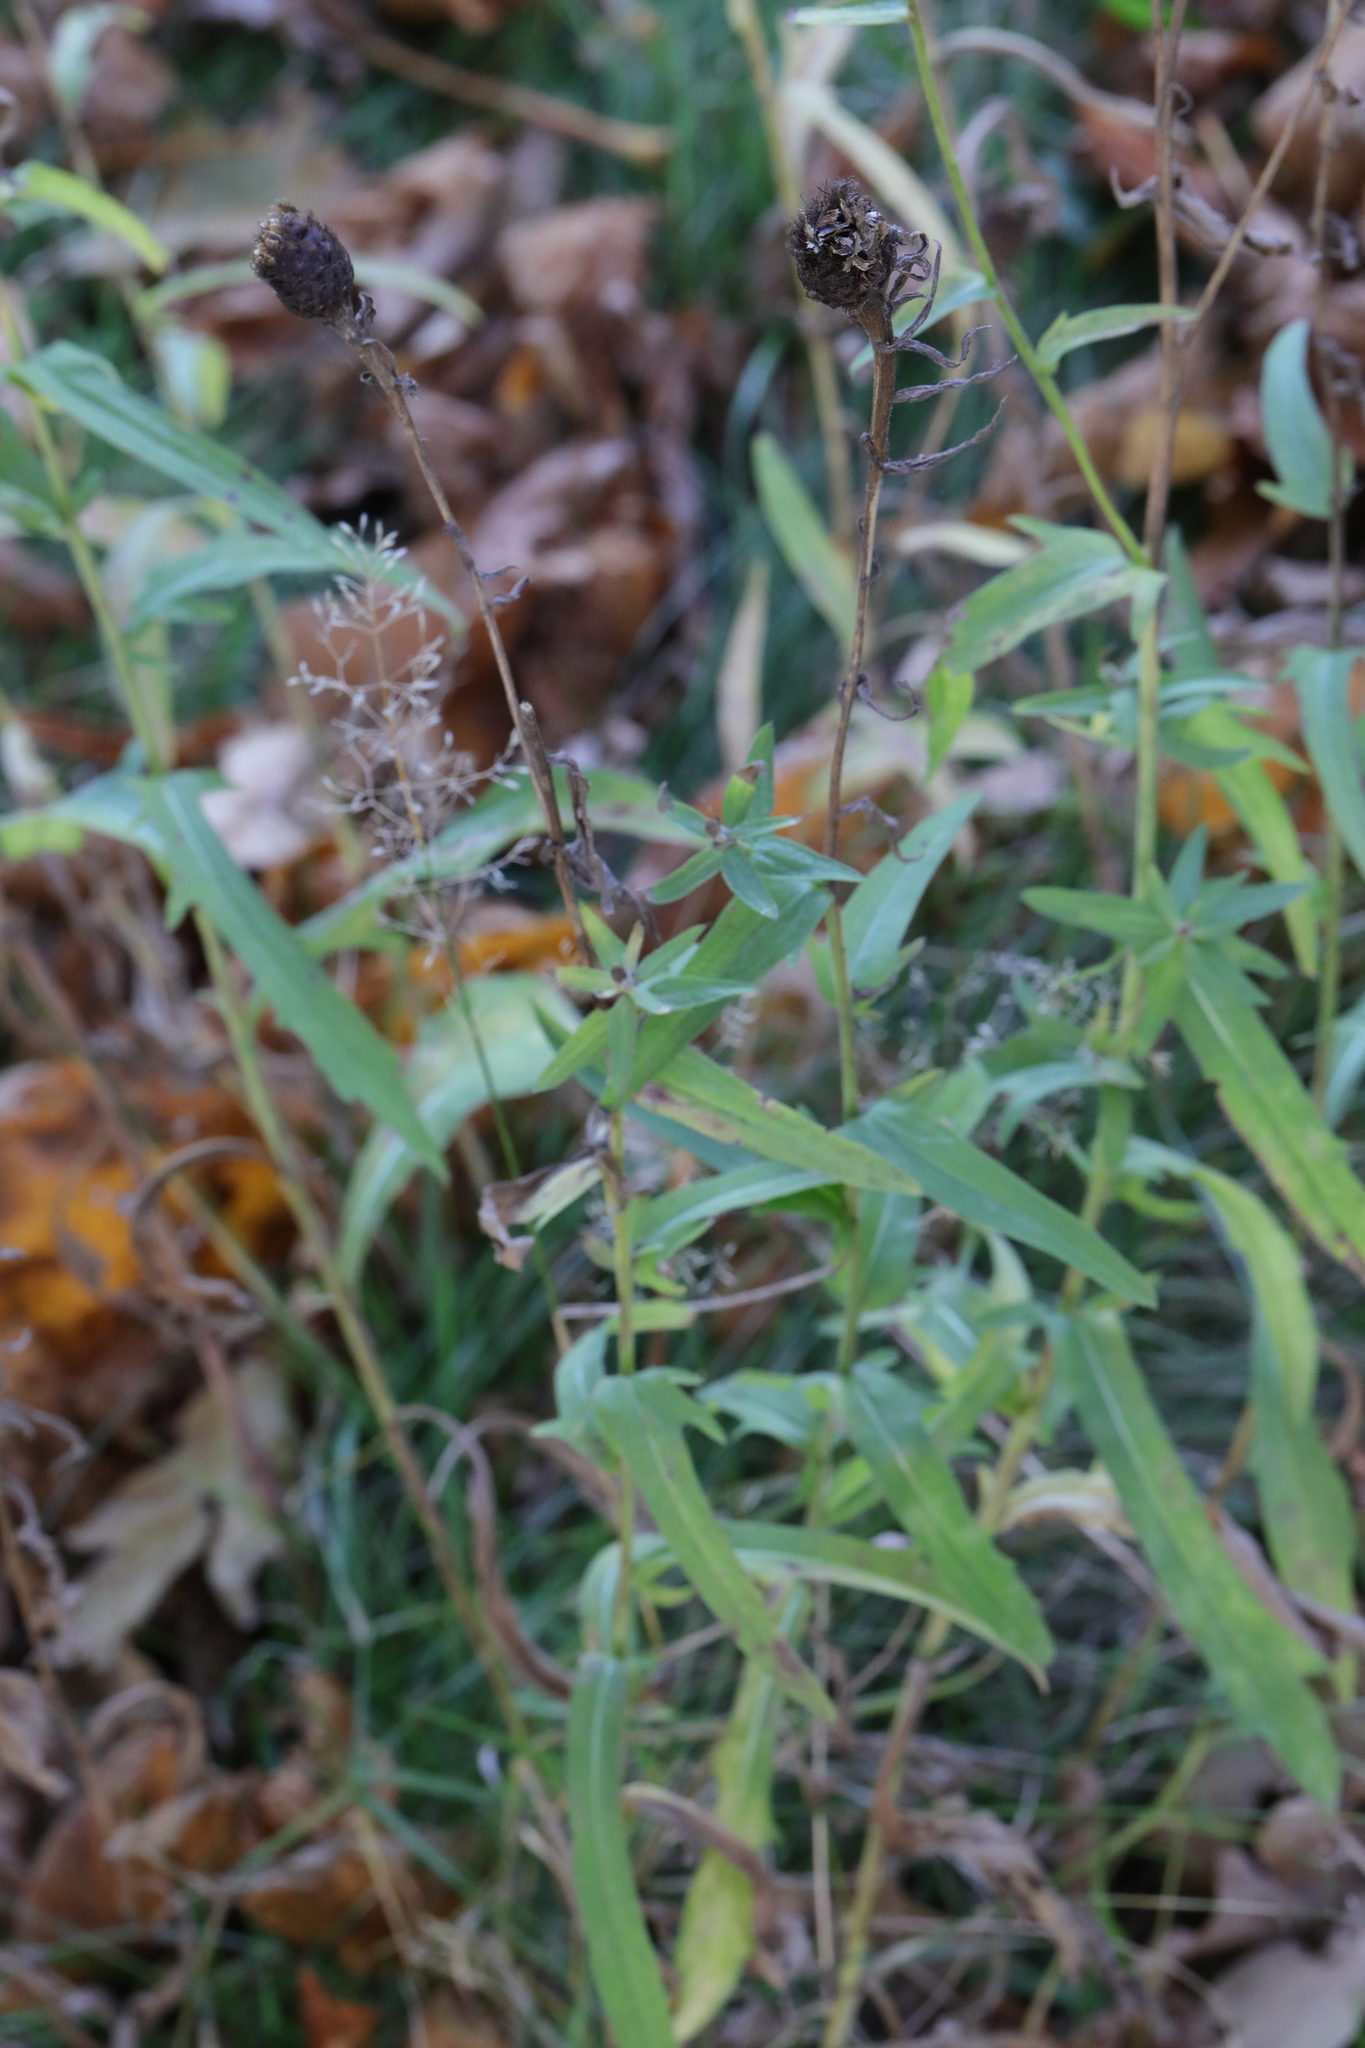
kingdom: Plantae
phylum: Tracheophyta
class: Magnoliopsida
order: Asterales
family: Asteraceae
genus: Centaurea
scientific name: Centaurea nigra
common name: Lesser knapweed
